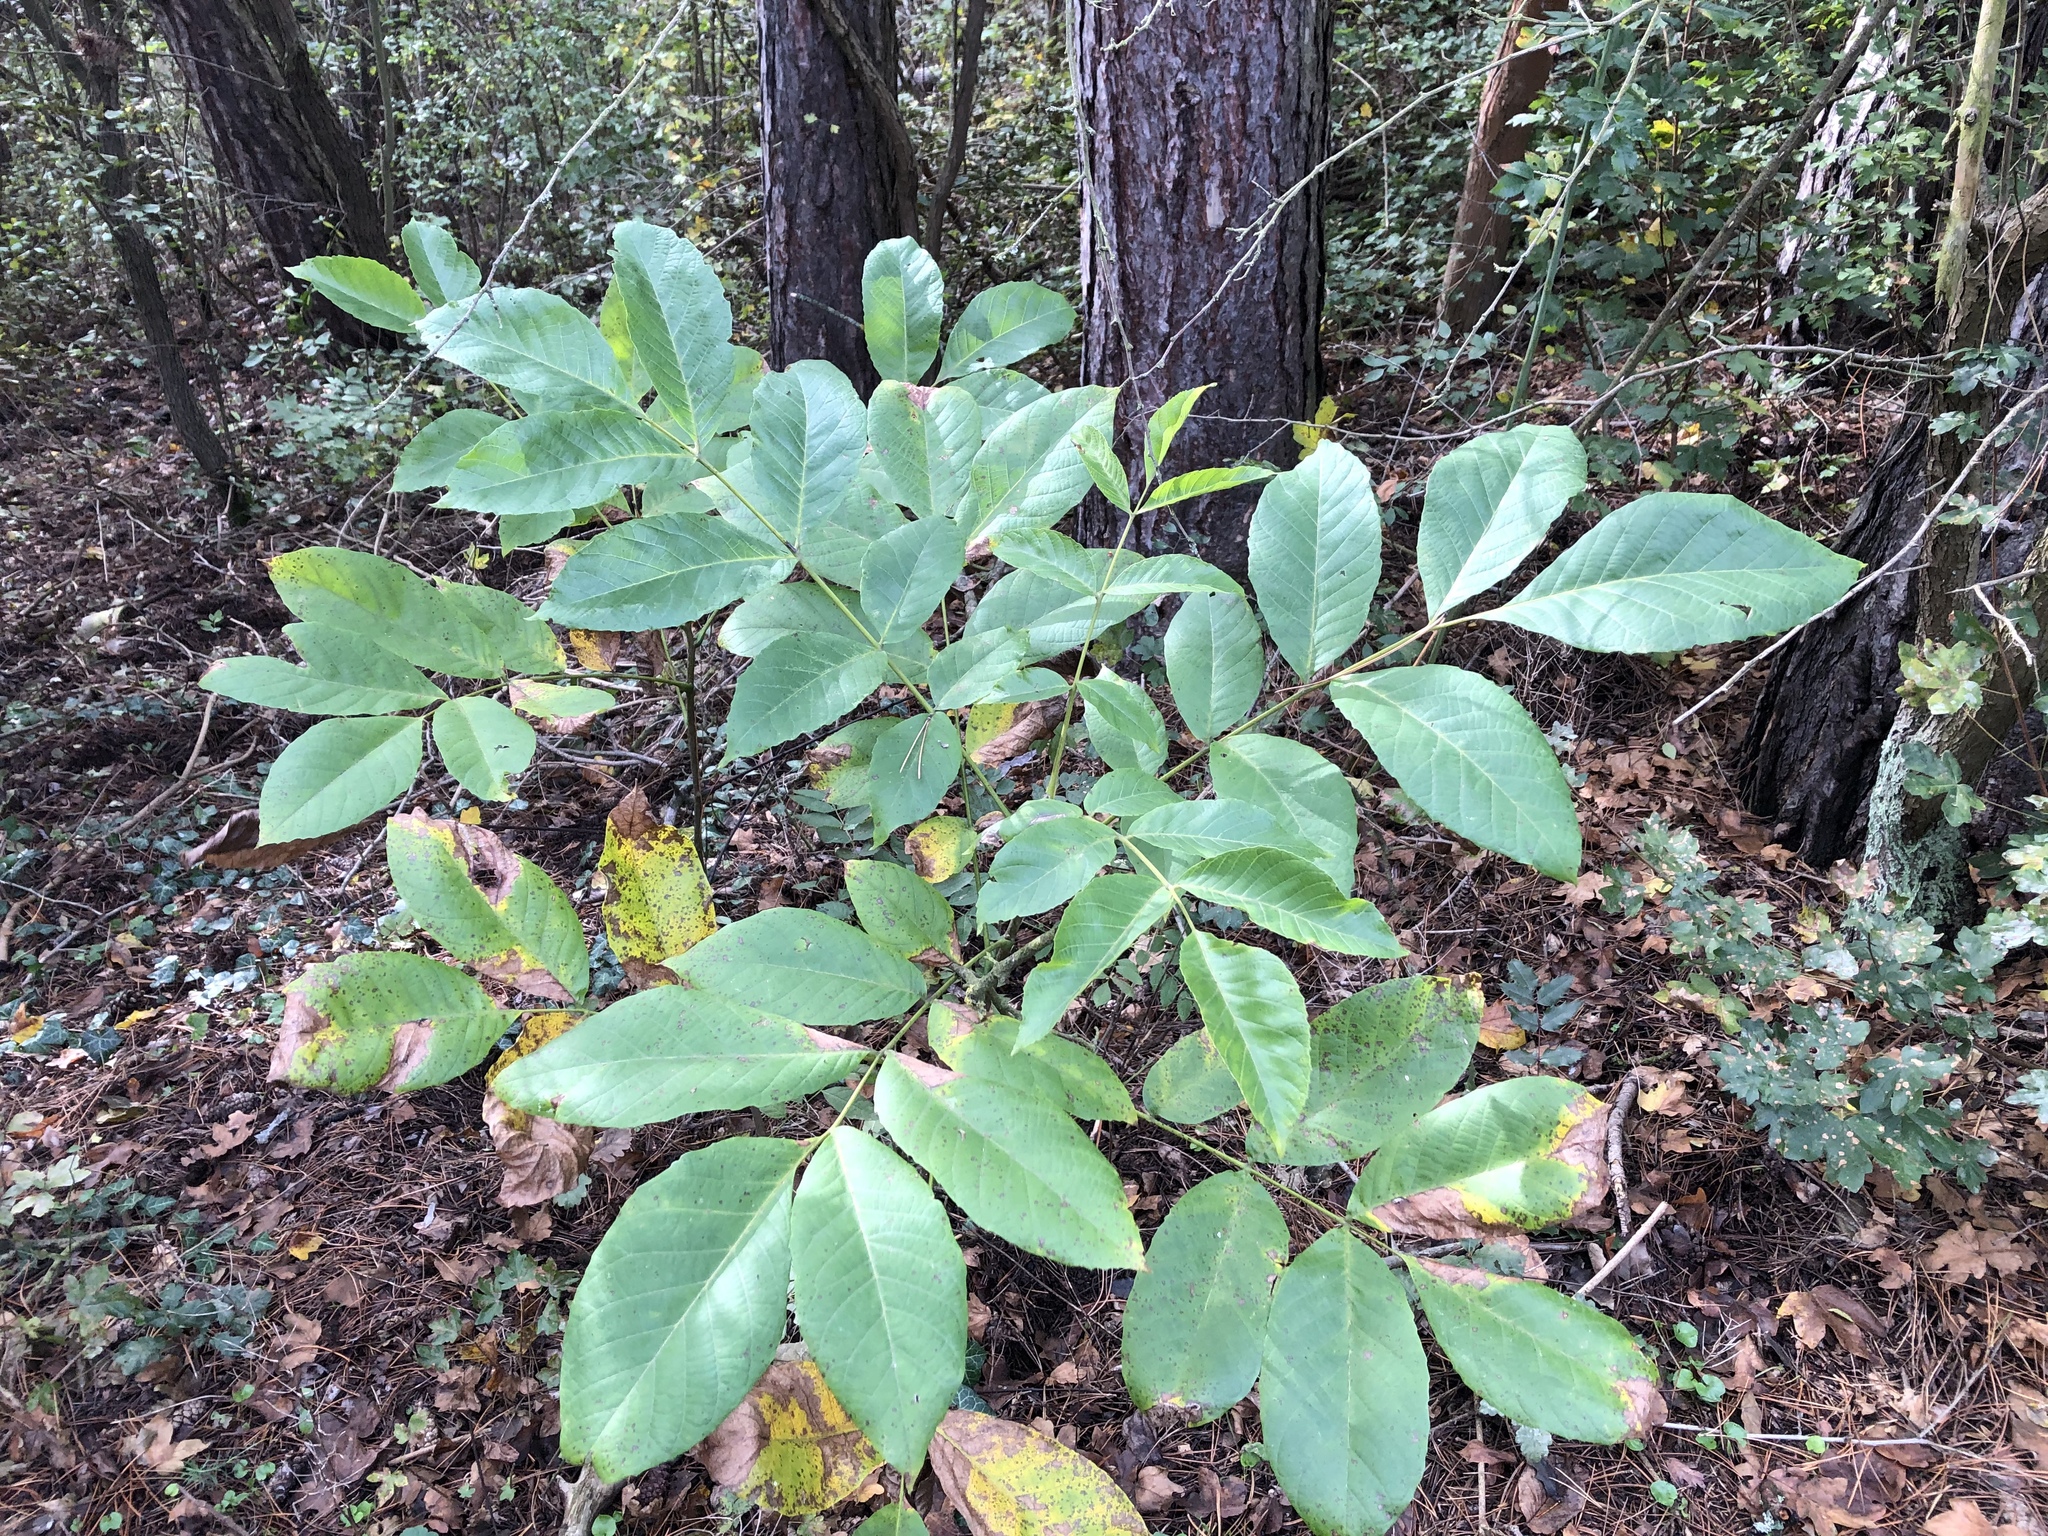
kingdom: Plantae
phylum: Tracheophyta
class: Magnoliopsida
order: Fagales
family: Juglandaceae
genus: Juglans
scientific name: Juglans regia
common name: Walnut
